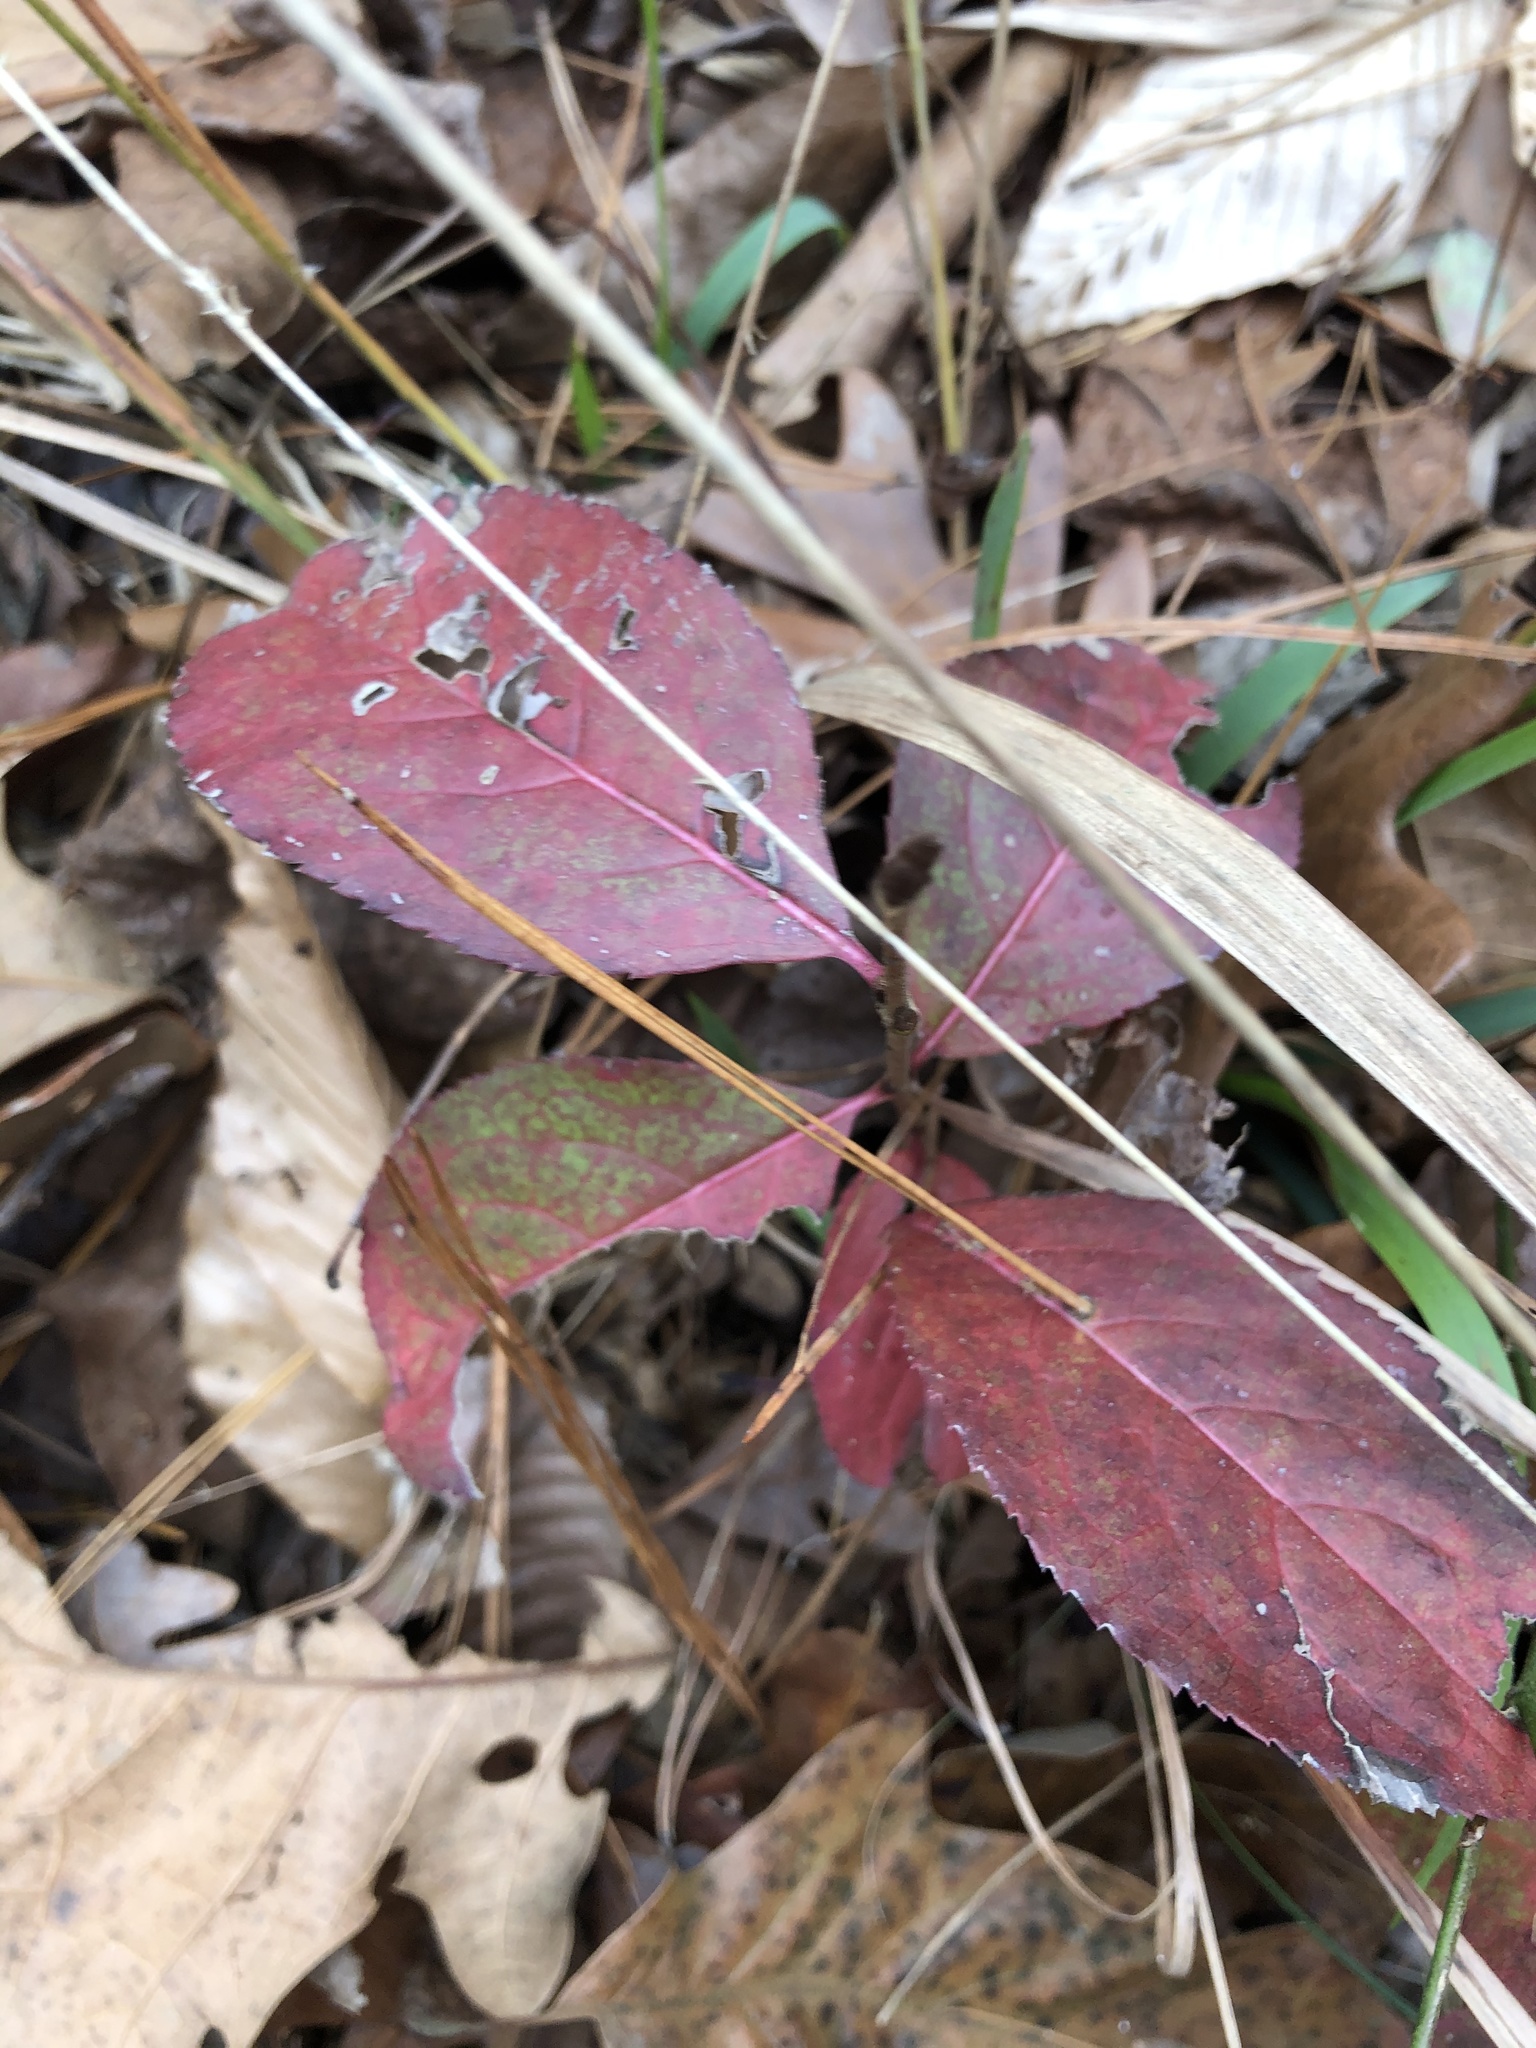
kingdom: Plantae
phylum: Tracheophyta
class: Magnoliopsida
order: Dipsacales
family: Viburnaceae
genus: Viburnum
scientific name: Viburnum rufidulum
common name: Blue haw
